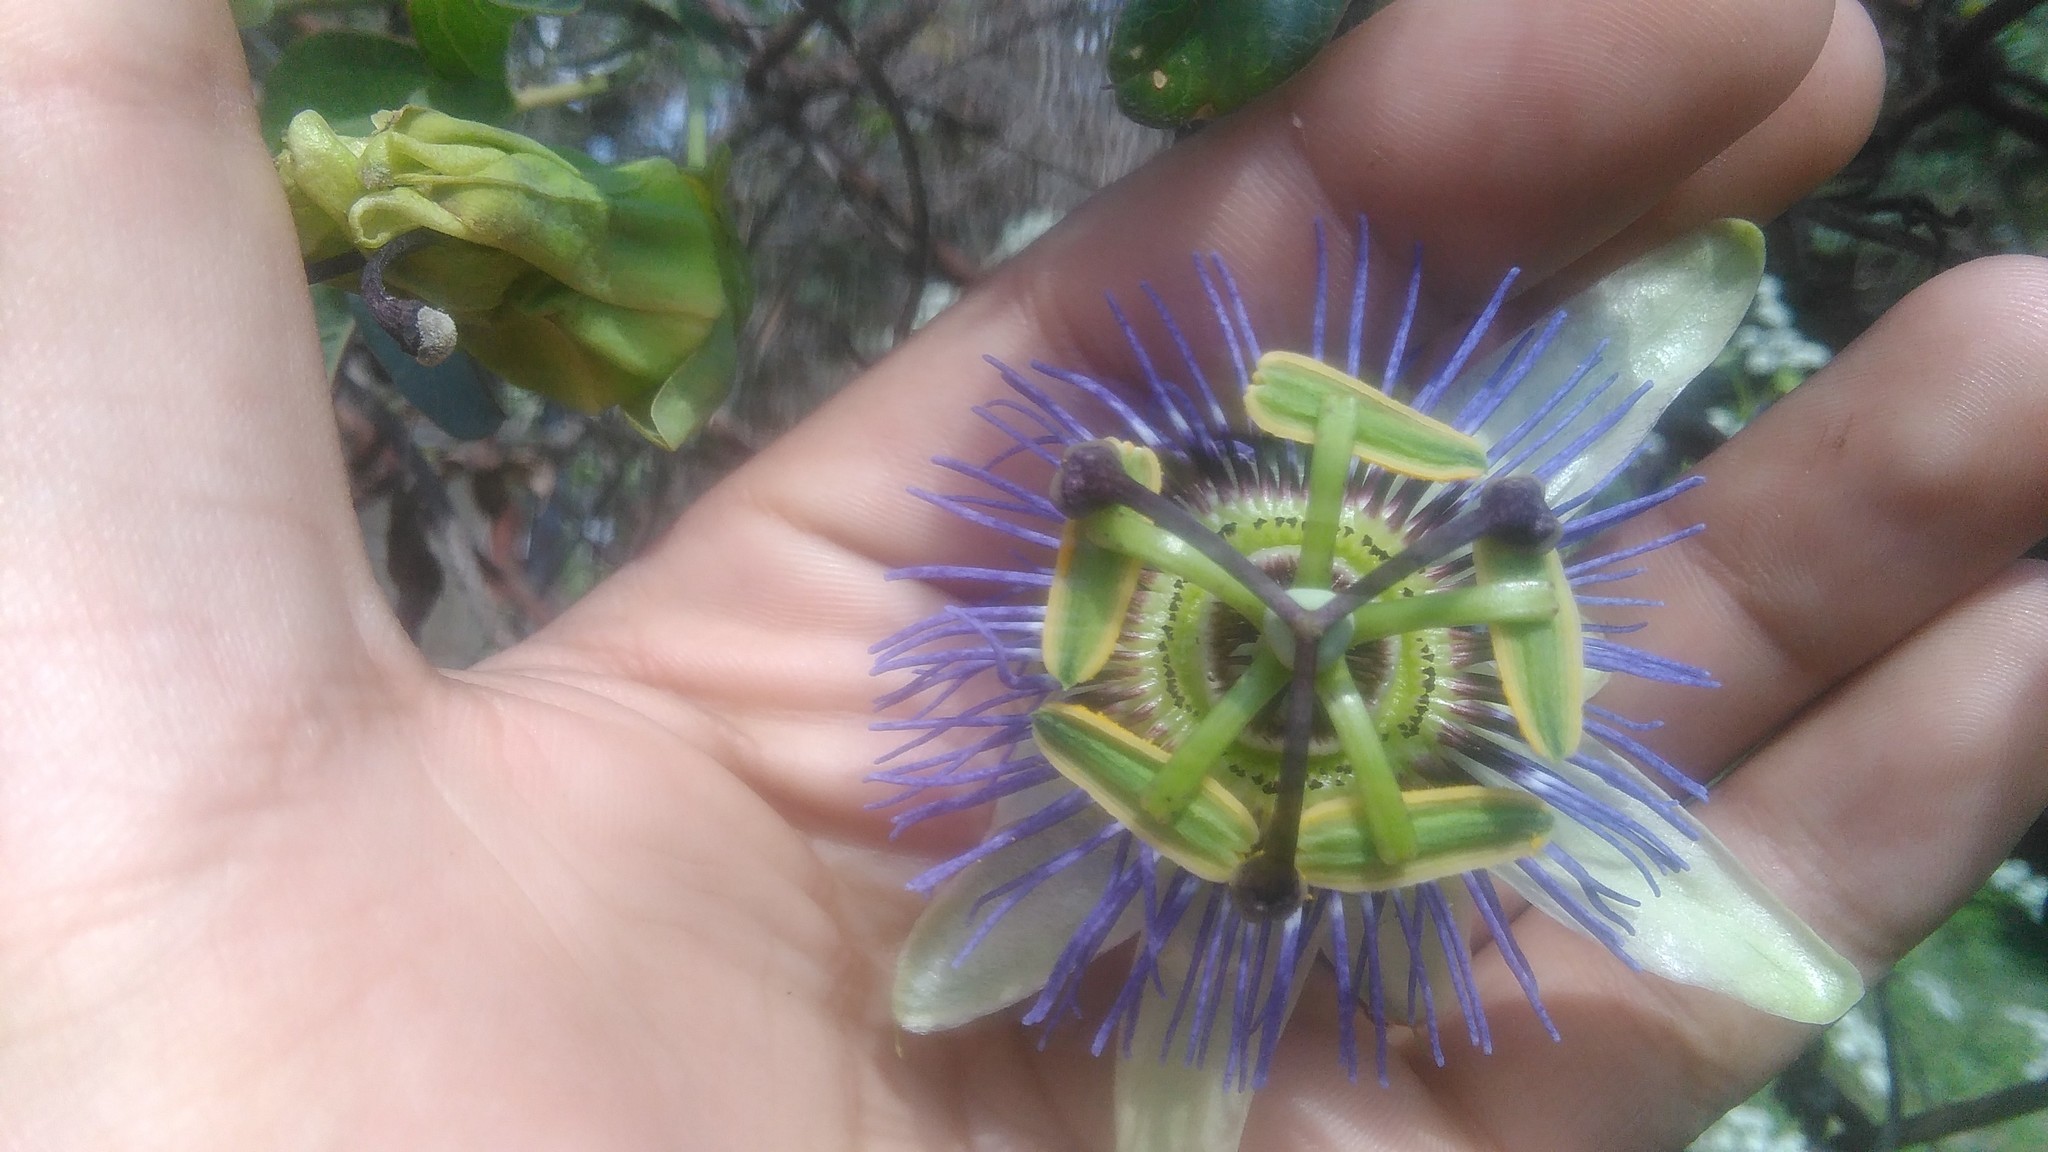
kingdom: Plantae
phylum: Tracheophyta
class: Magnoliopsida
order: Malpighiales
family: Passifloraceae
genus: Passiflora
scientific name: Passiflora caerulea
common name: Blue passionflower
